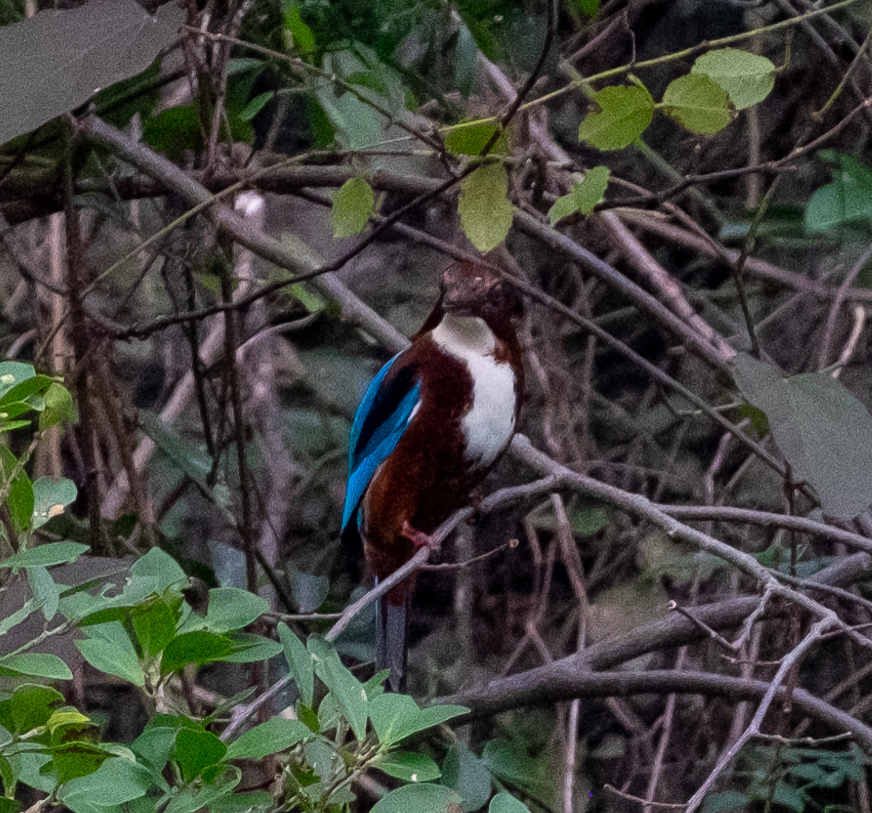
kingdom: Animalia
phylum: Chordata
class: Aves
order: Coraciiformes
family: Alcedinidae
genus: Halcyon
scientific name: Halcyon smyrnensis
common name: White-throated kingfisher
